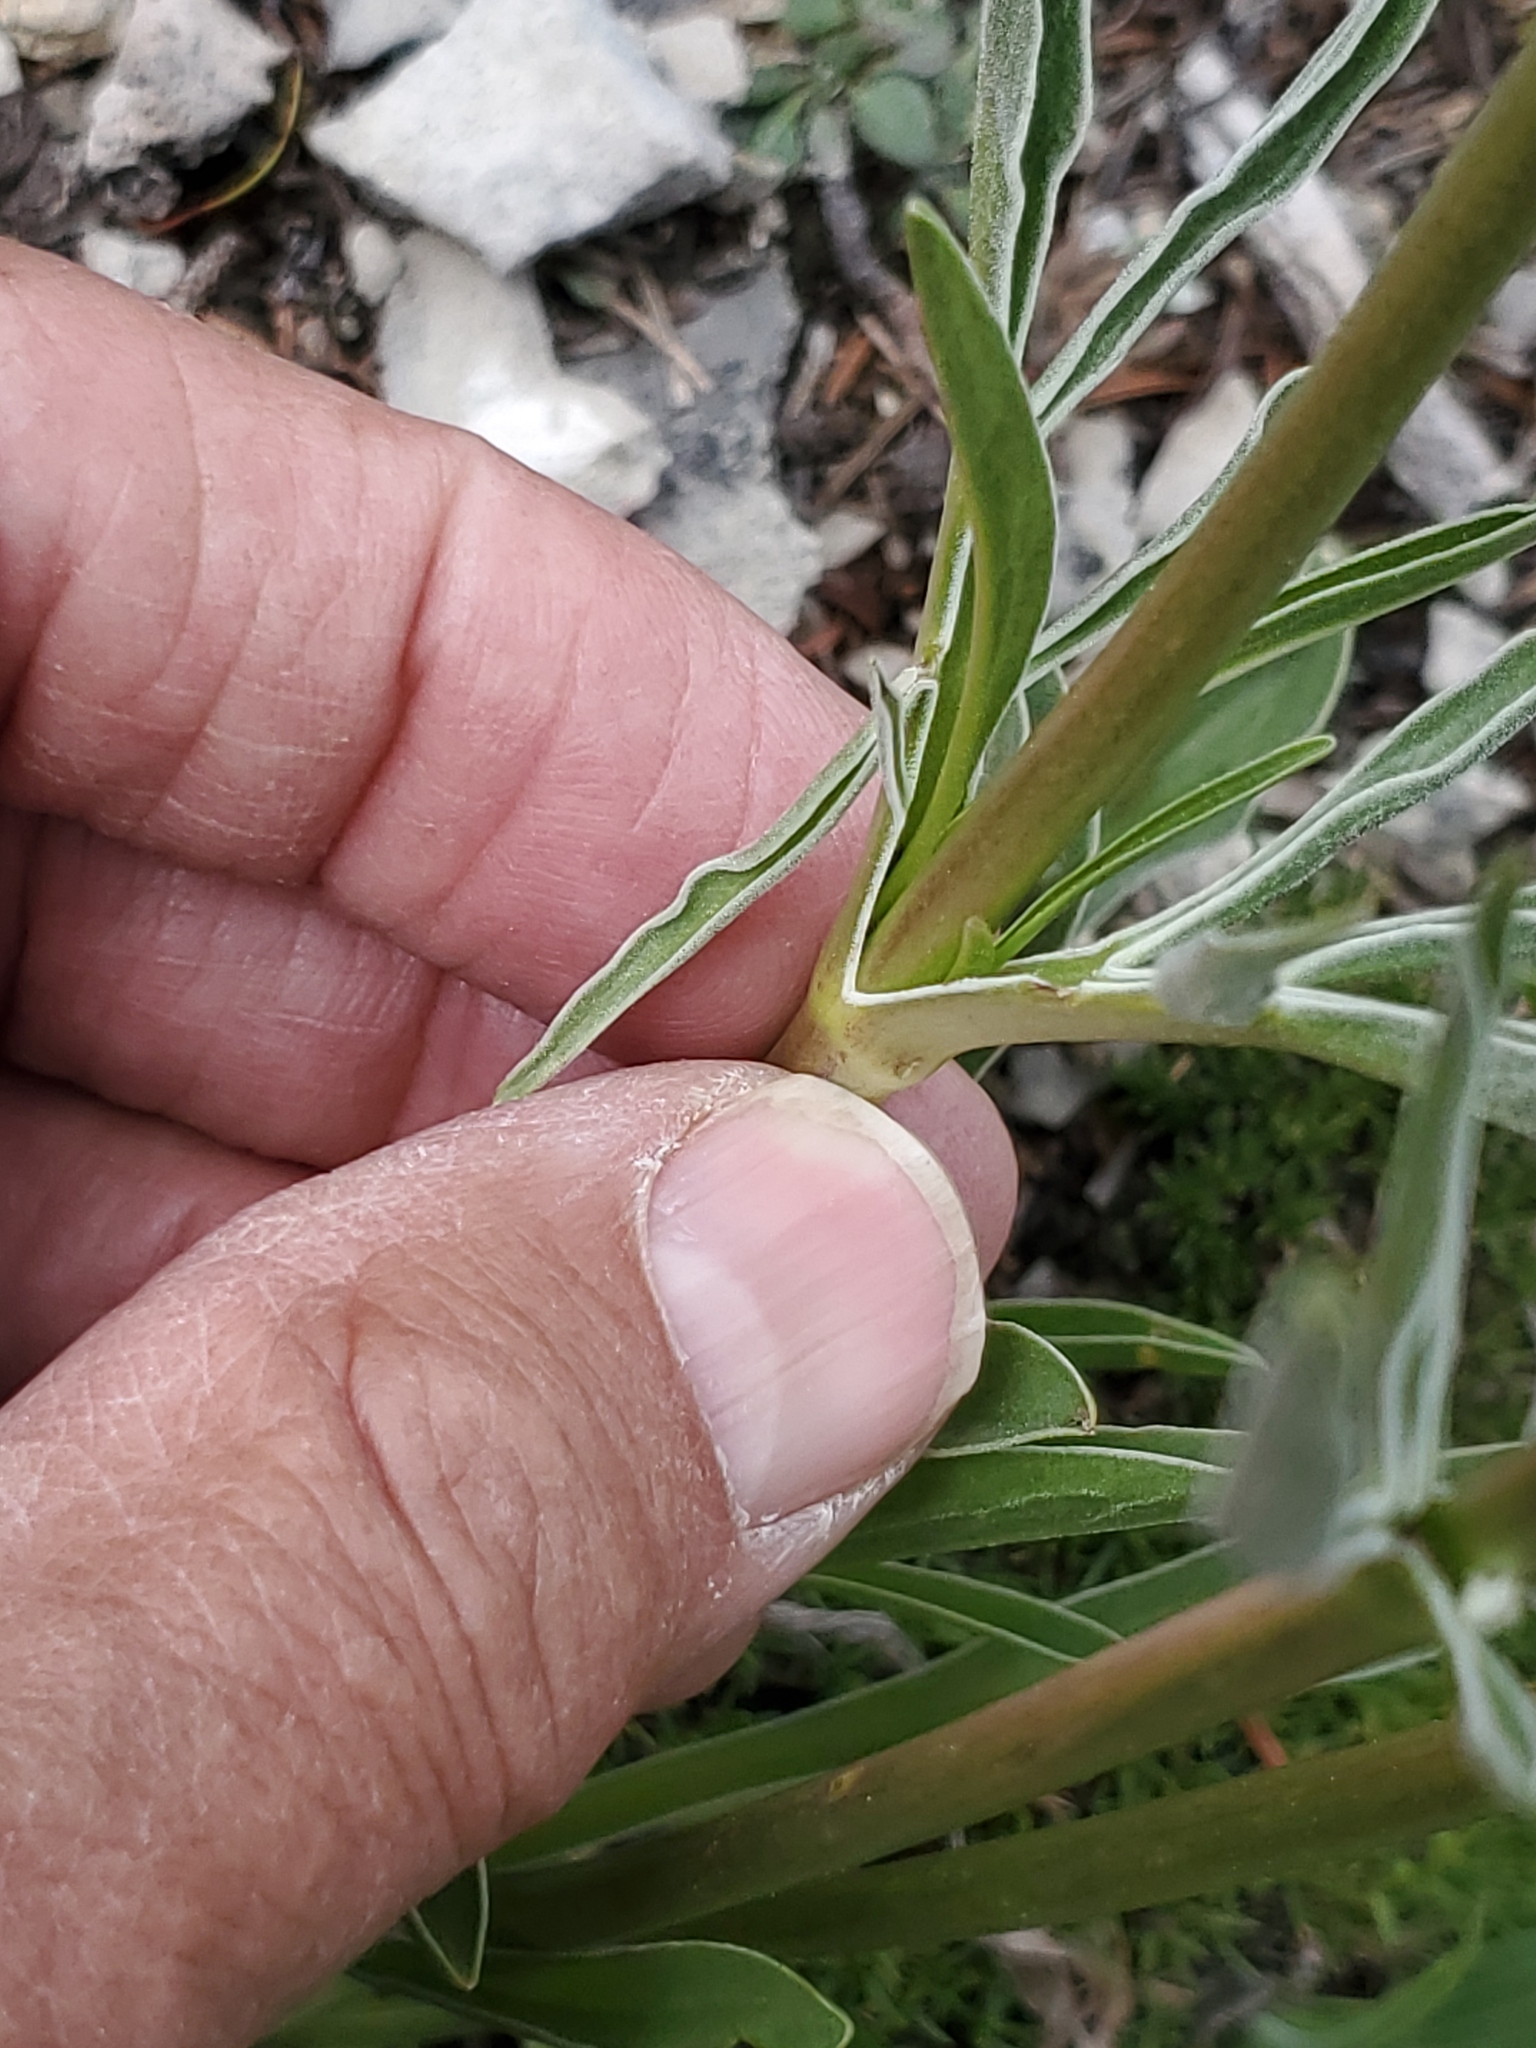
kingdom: Plantae
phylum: Tracheophyta
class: Magnoliopsida
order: Dipsacales
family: Caprifoliaceae
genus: Valeriana
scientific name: Valeriana edulis
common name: Taproot valerian
